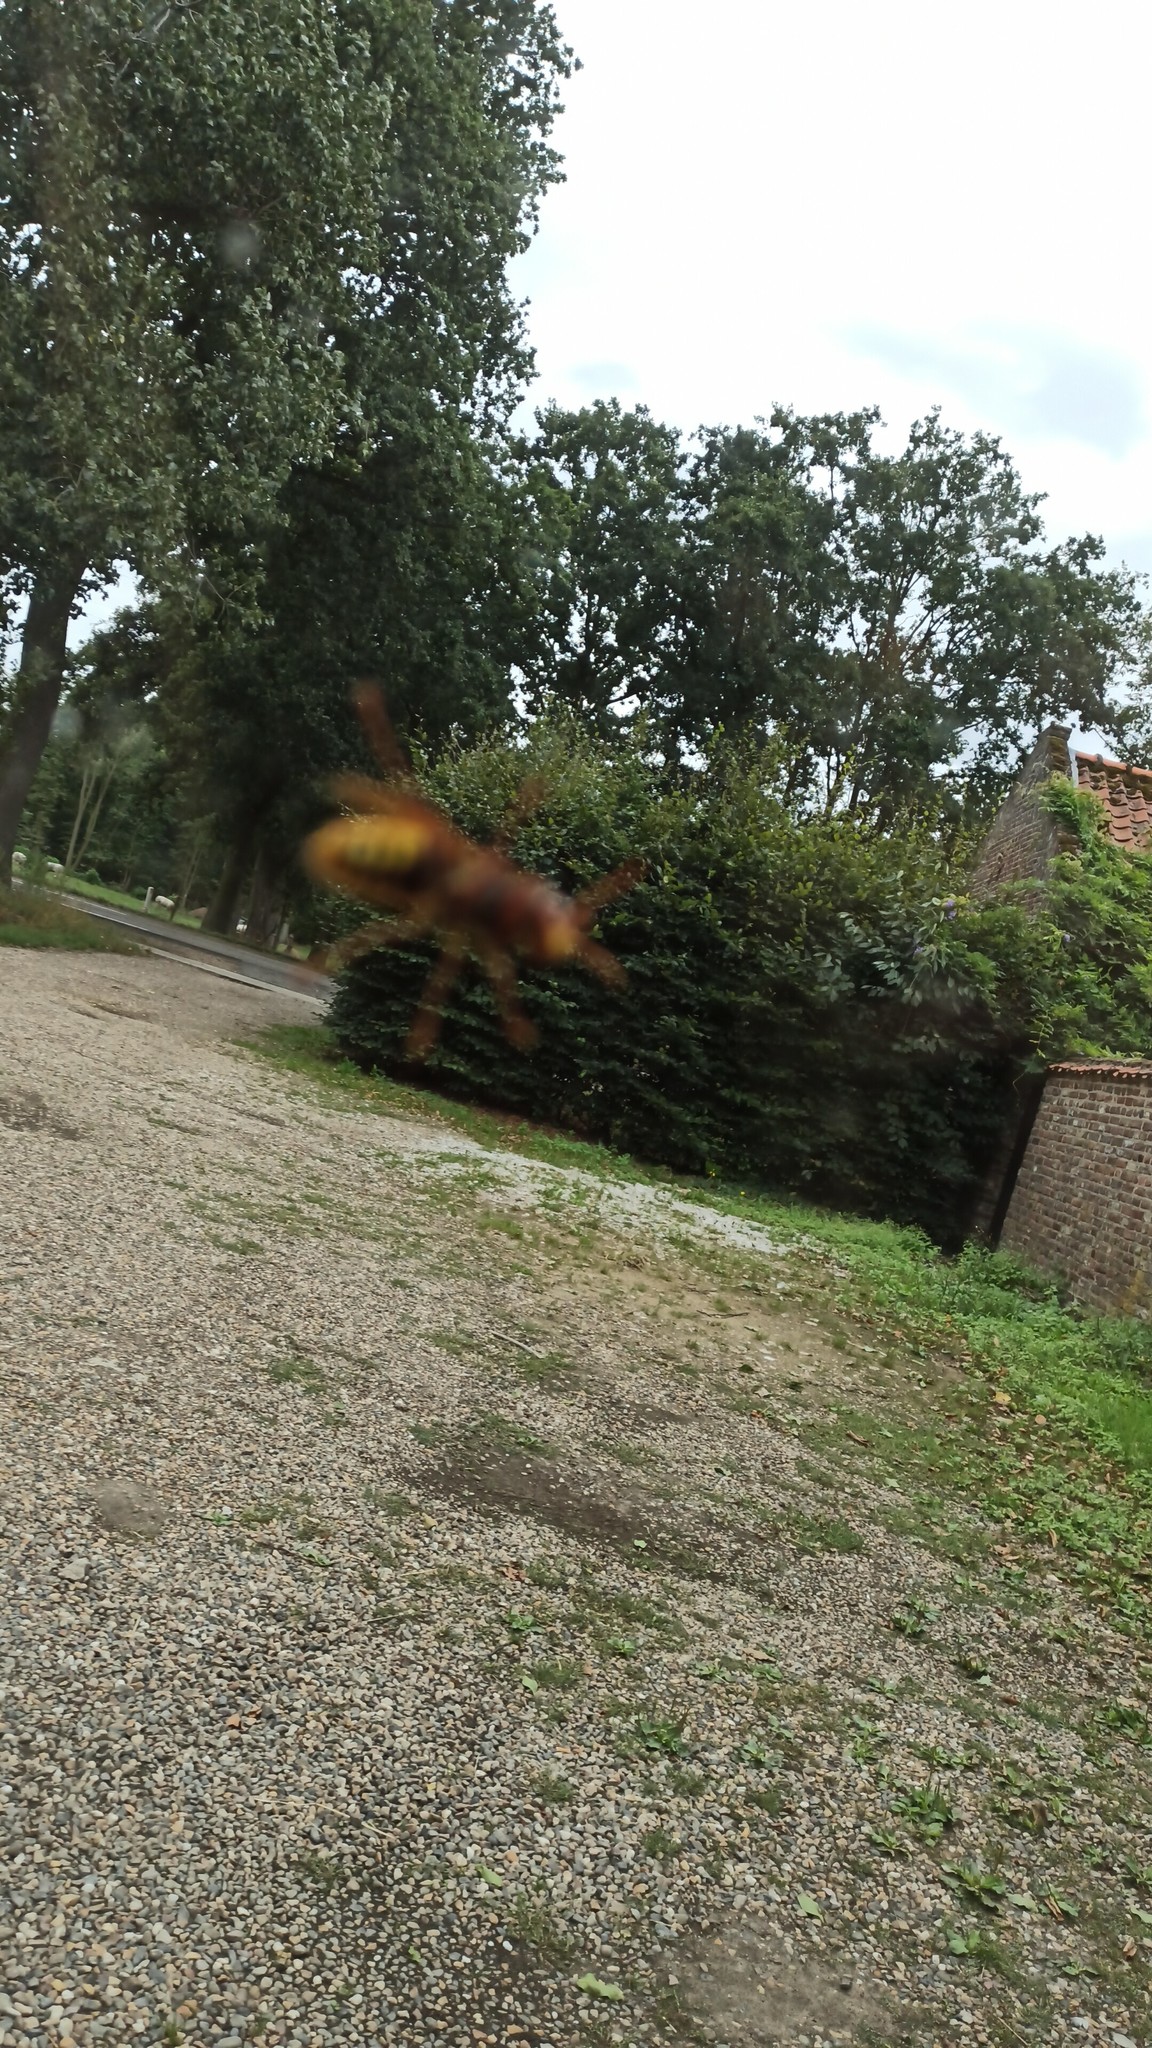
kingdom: Animalia
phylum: Arthropoda
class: Insecta
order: Hymenoptera
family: Vespidae
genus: Vespa
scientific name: Vespa crabro
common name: Hornet
